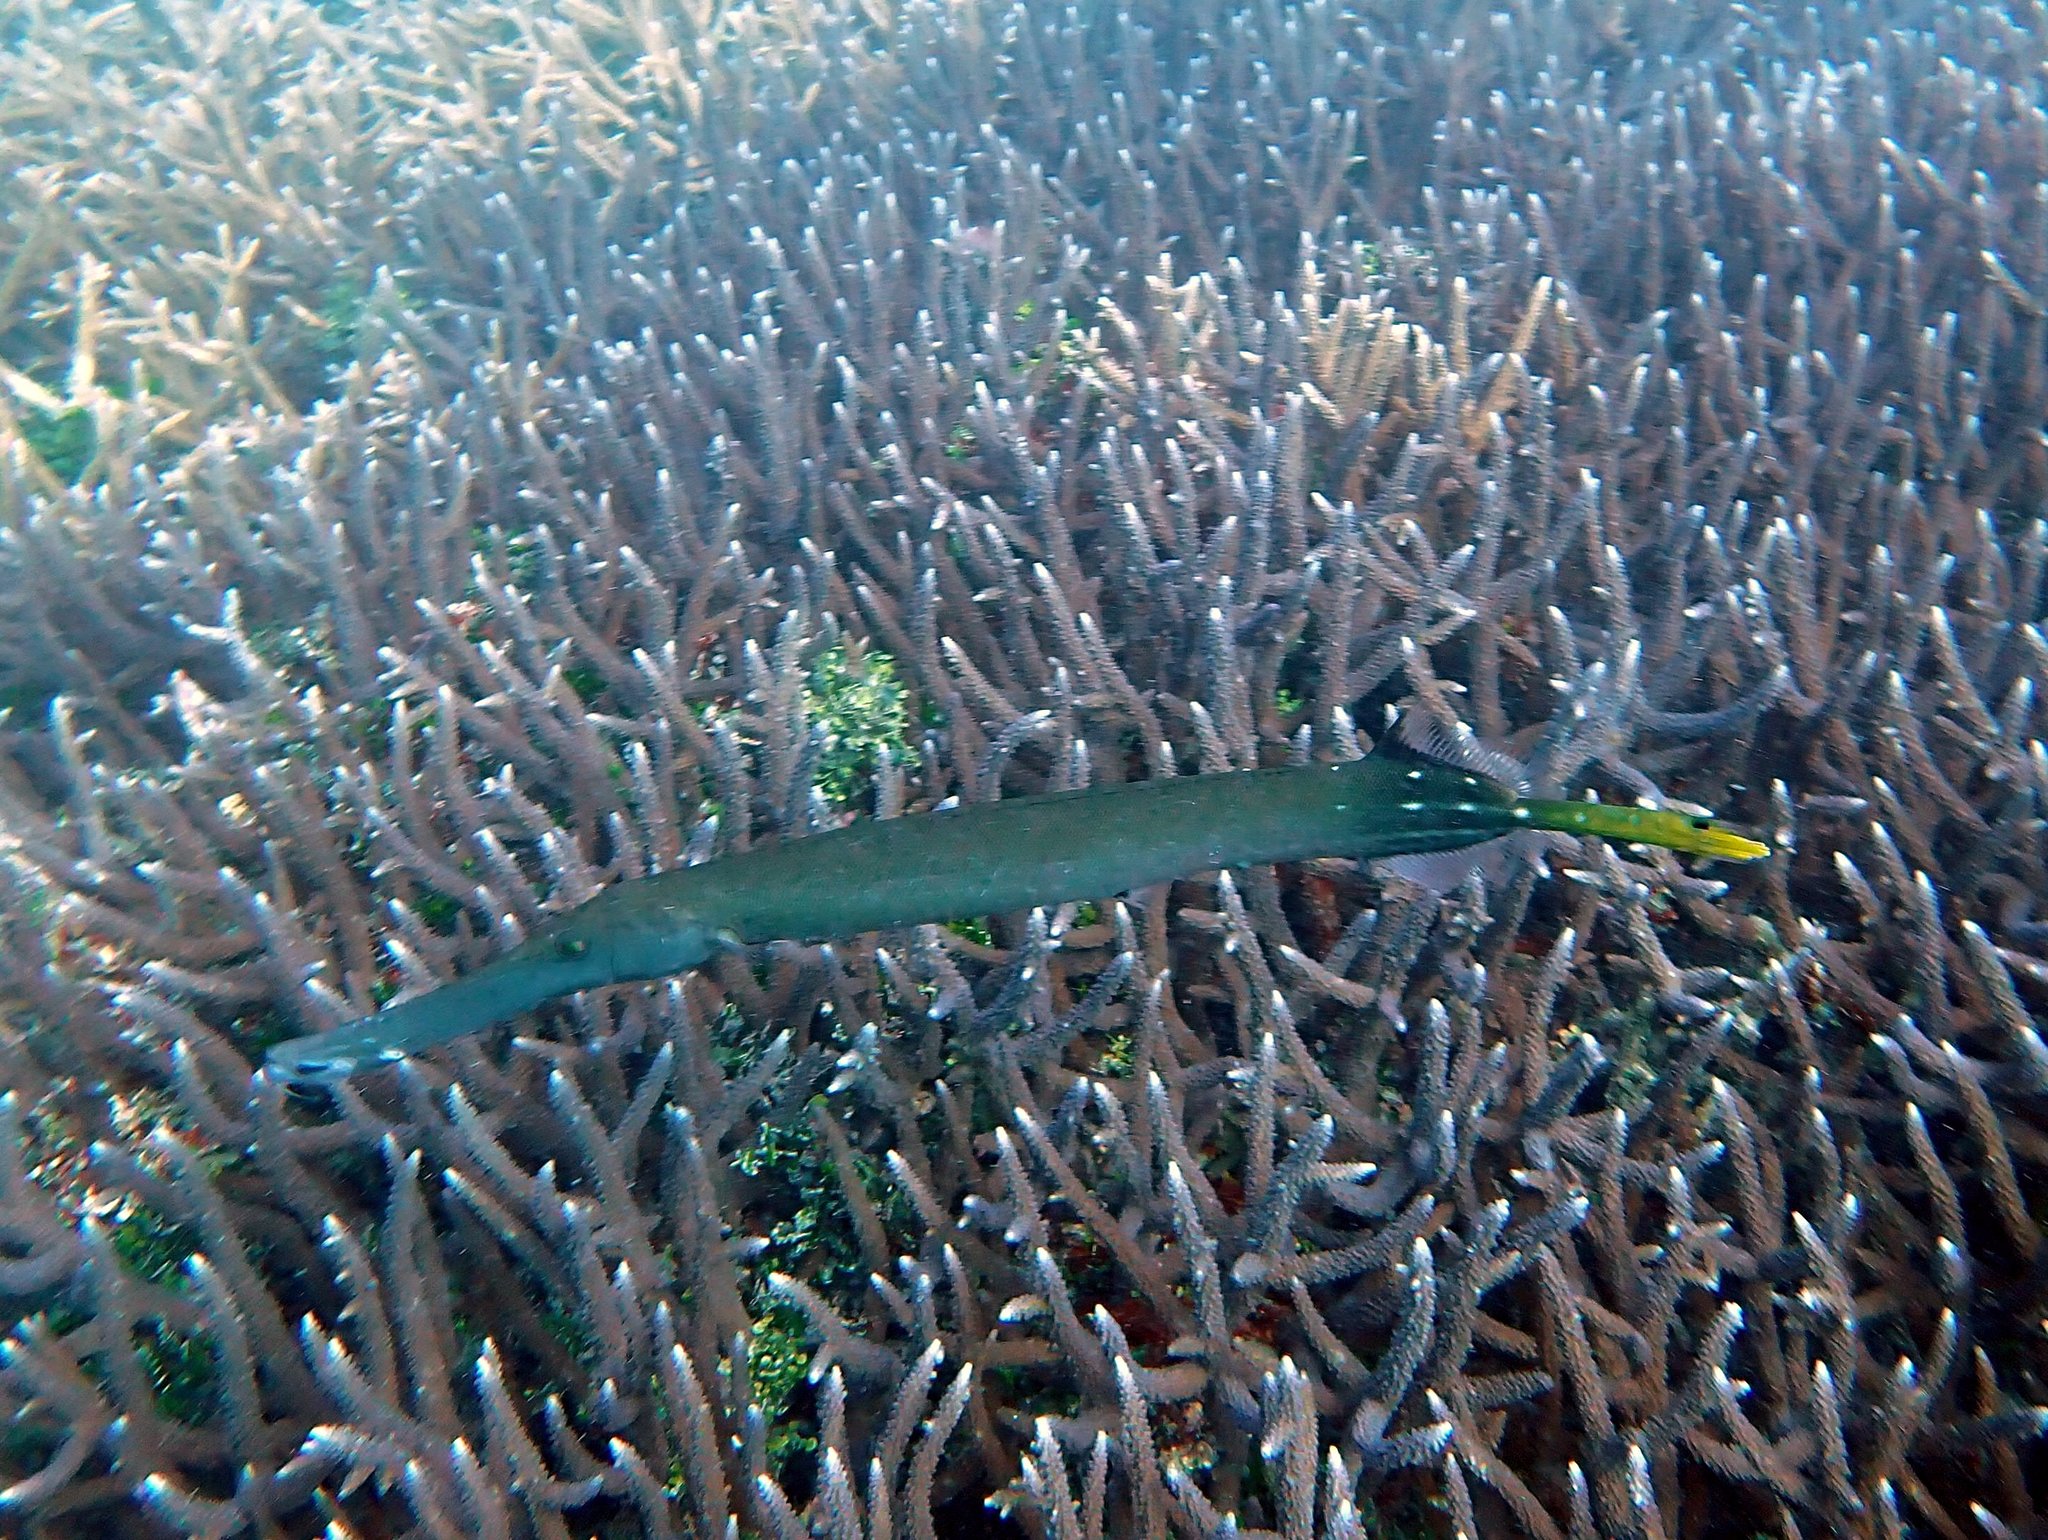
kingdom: Animalia
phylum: Chordata
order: Syngnathiformes
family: Aulostomidae
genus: Aulostomus
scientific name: Aulostomus chinensis
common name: Chinese trumpetfish
